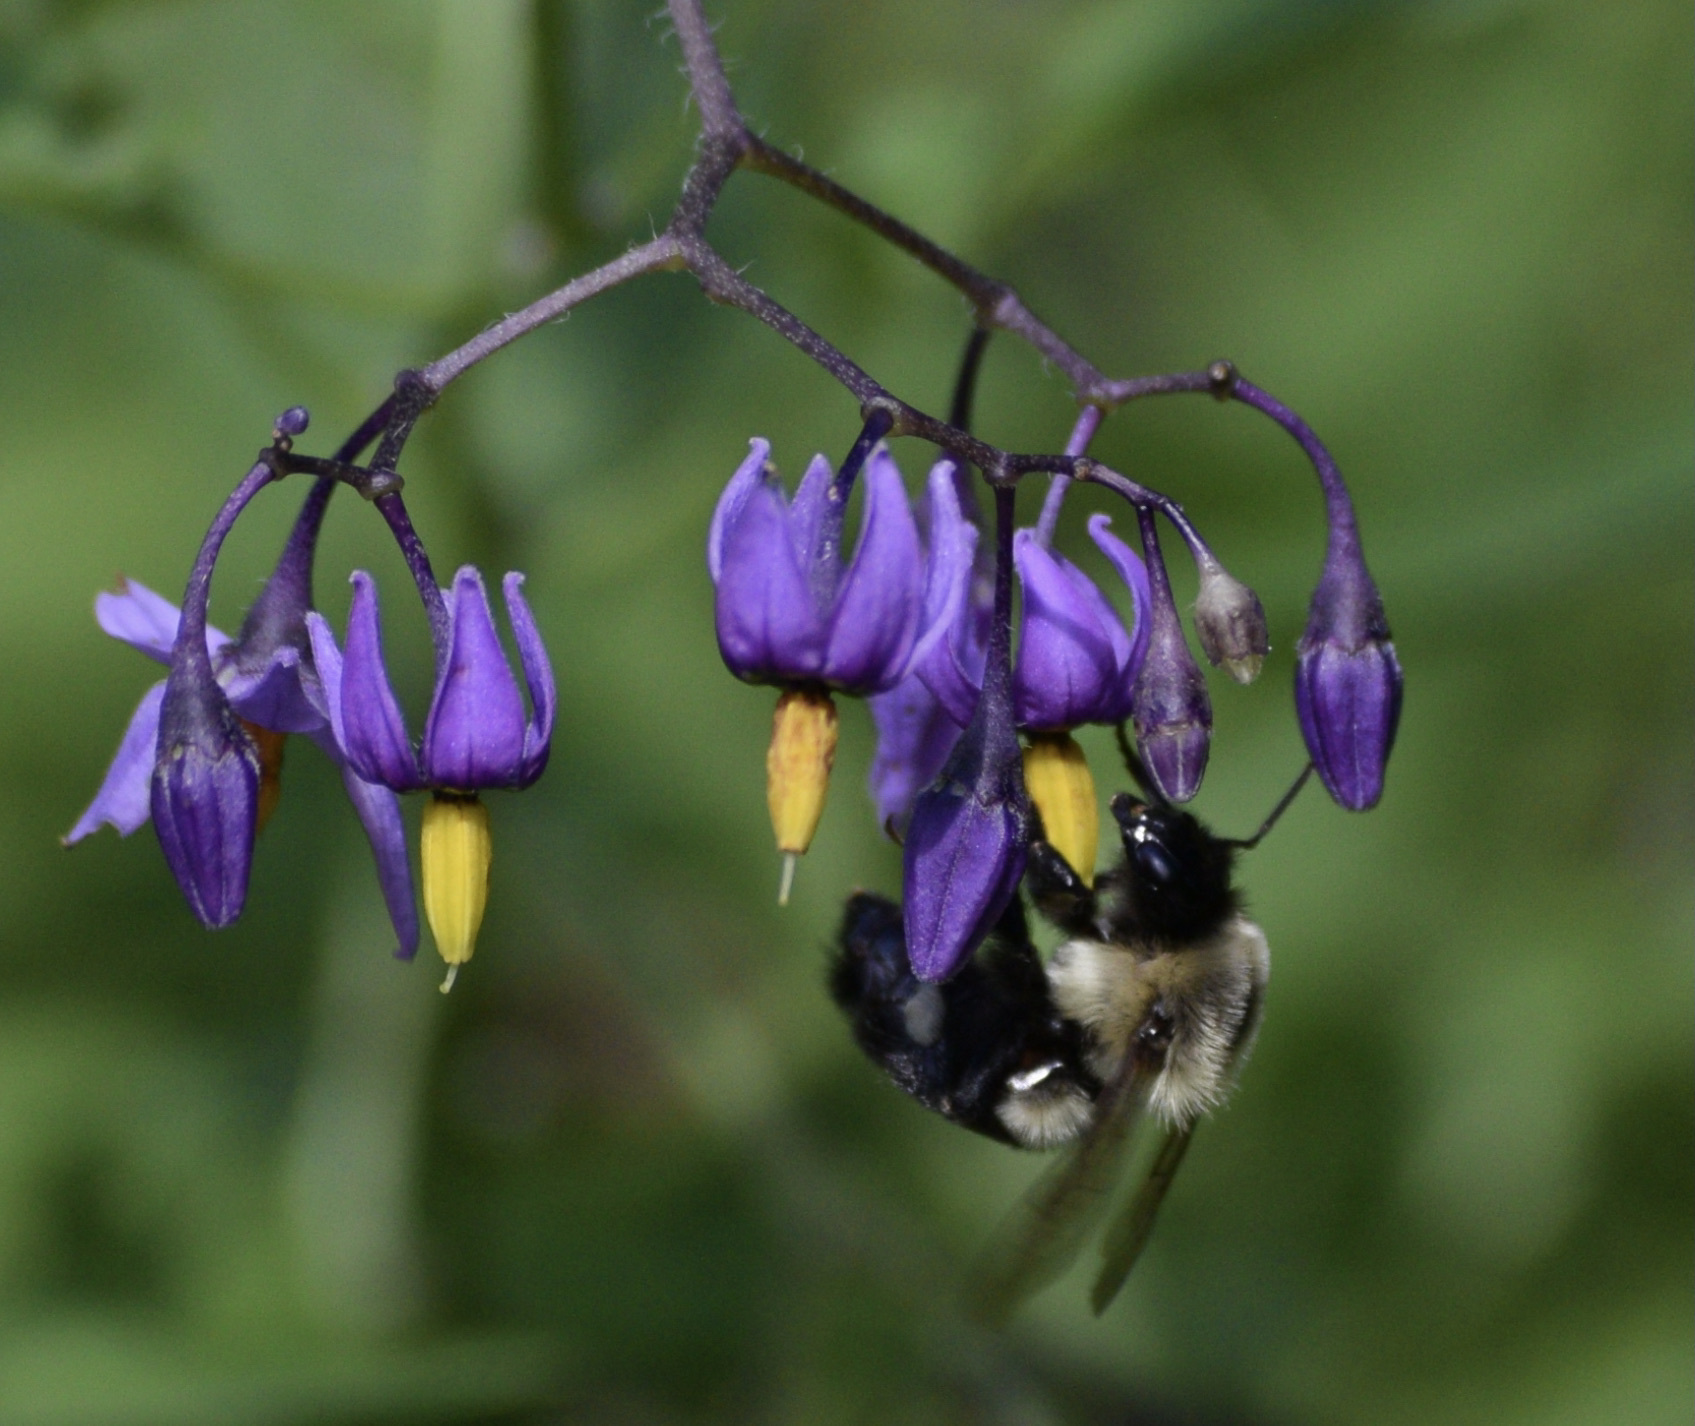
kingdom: Animalia
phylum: Arthropoda
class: Insecta
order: Hymenoptera
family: Apidae
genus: Bombus
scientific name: Bombus impatiens
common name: Common eastern bumble bee
